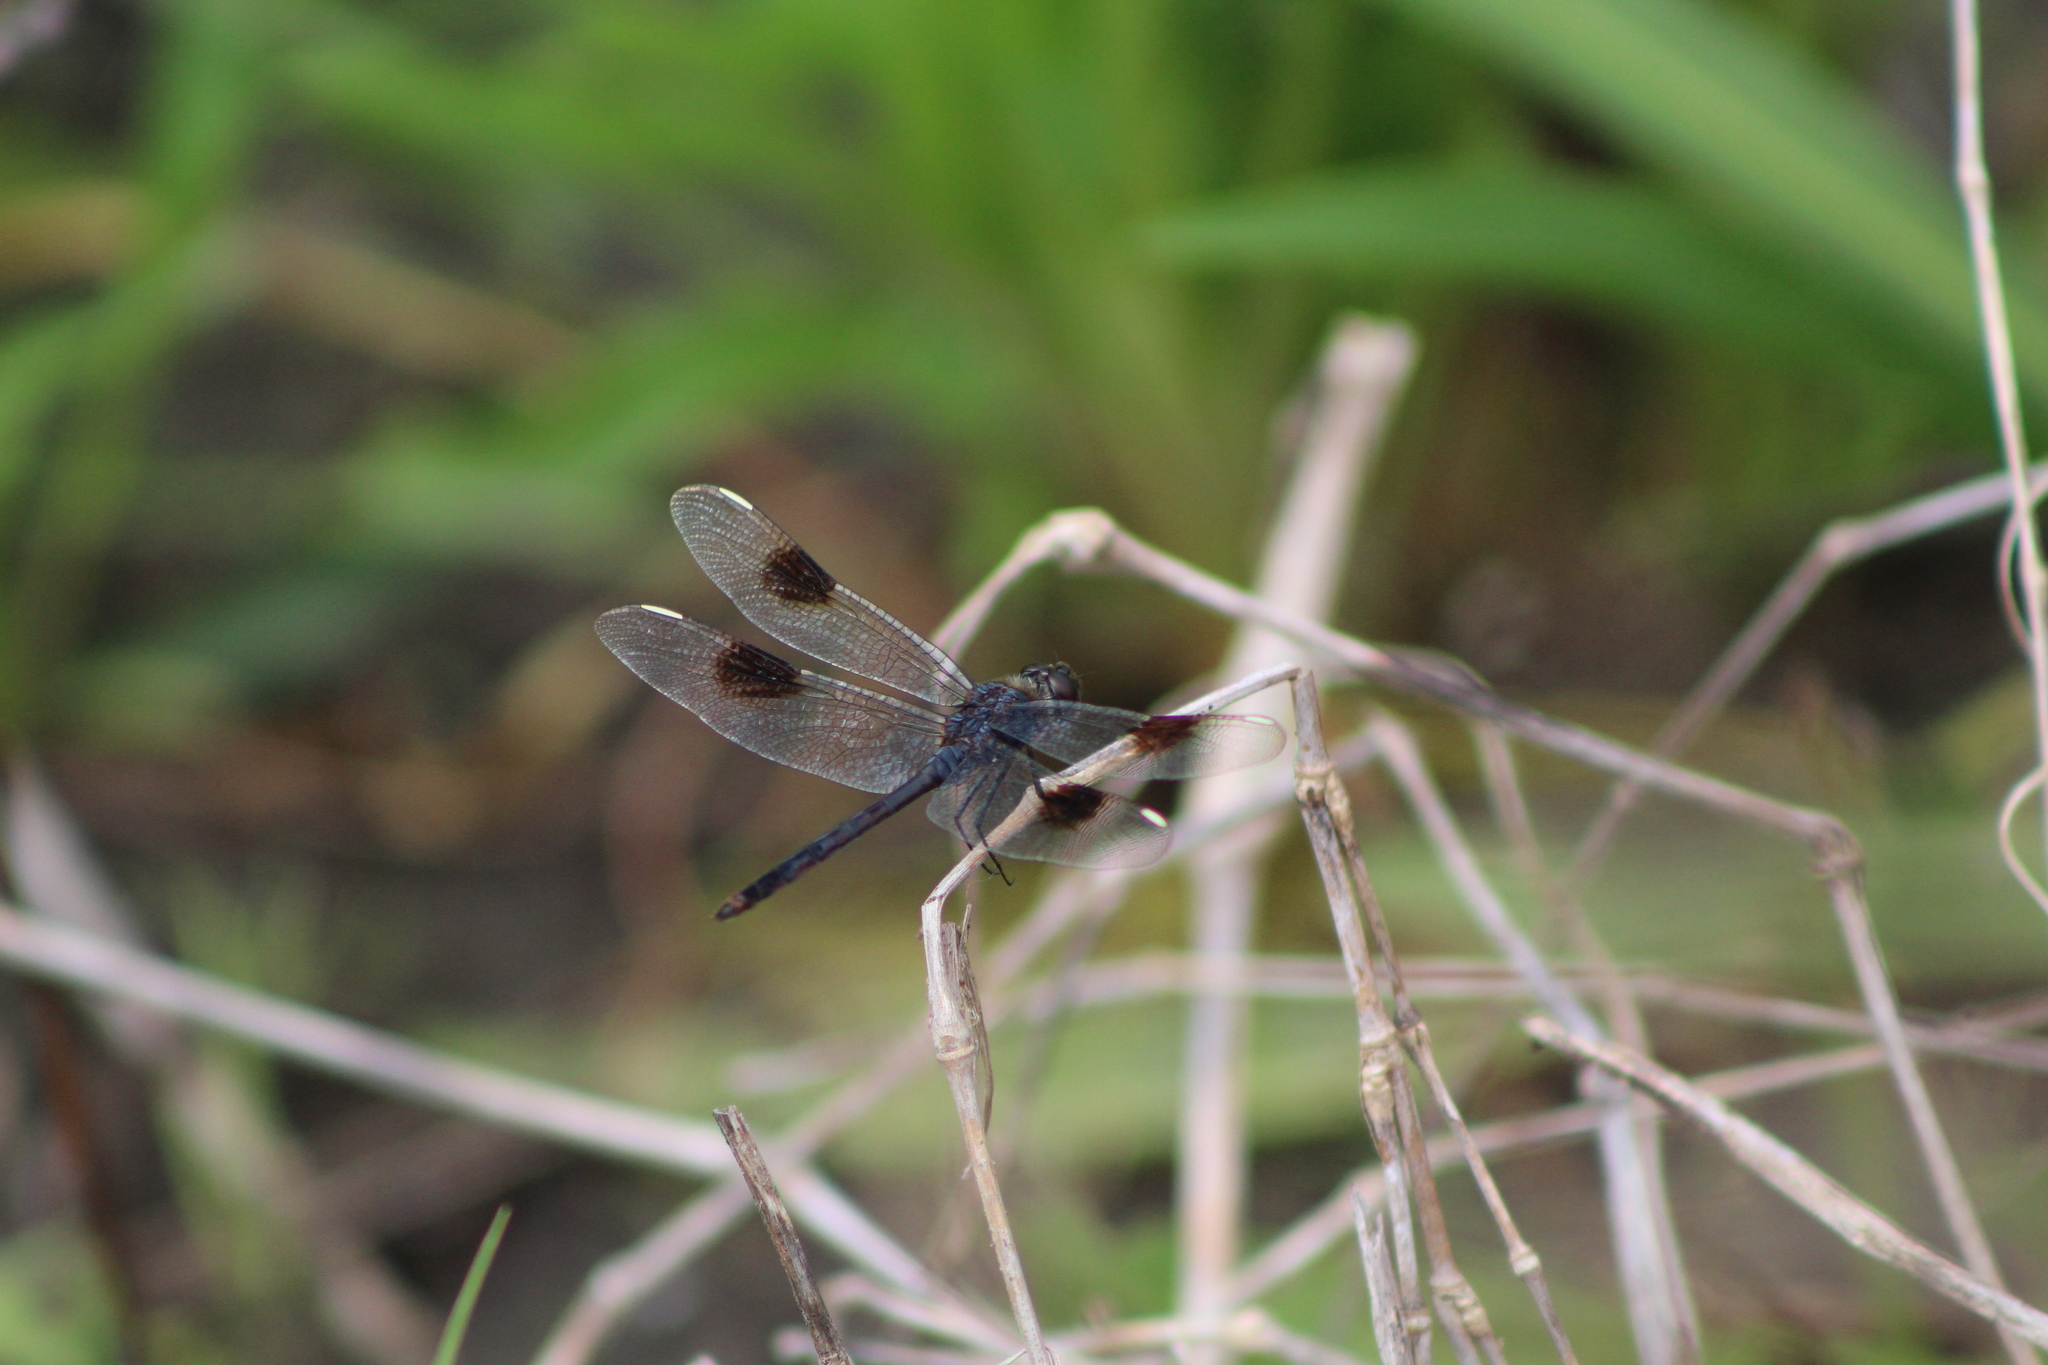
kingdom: Animalia
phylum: Arthropoda
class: Insecta
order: Odonata
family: Libellulidae
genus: Brachymesia
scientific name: Brachymesia gravida
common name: Four-spotted pennant
